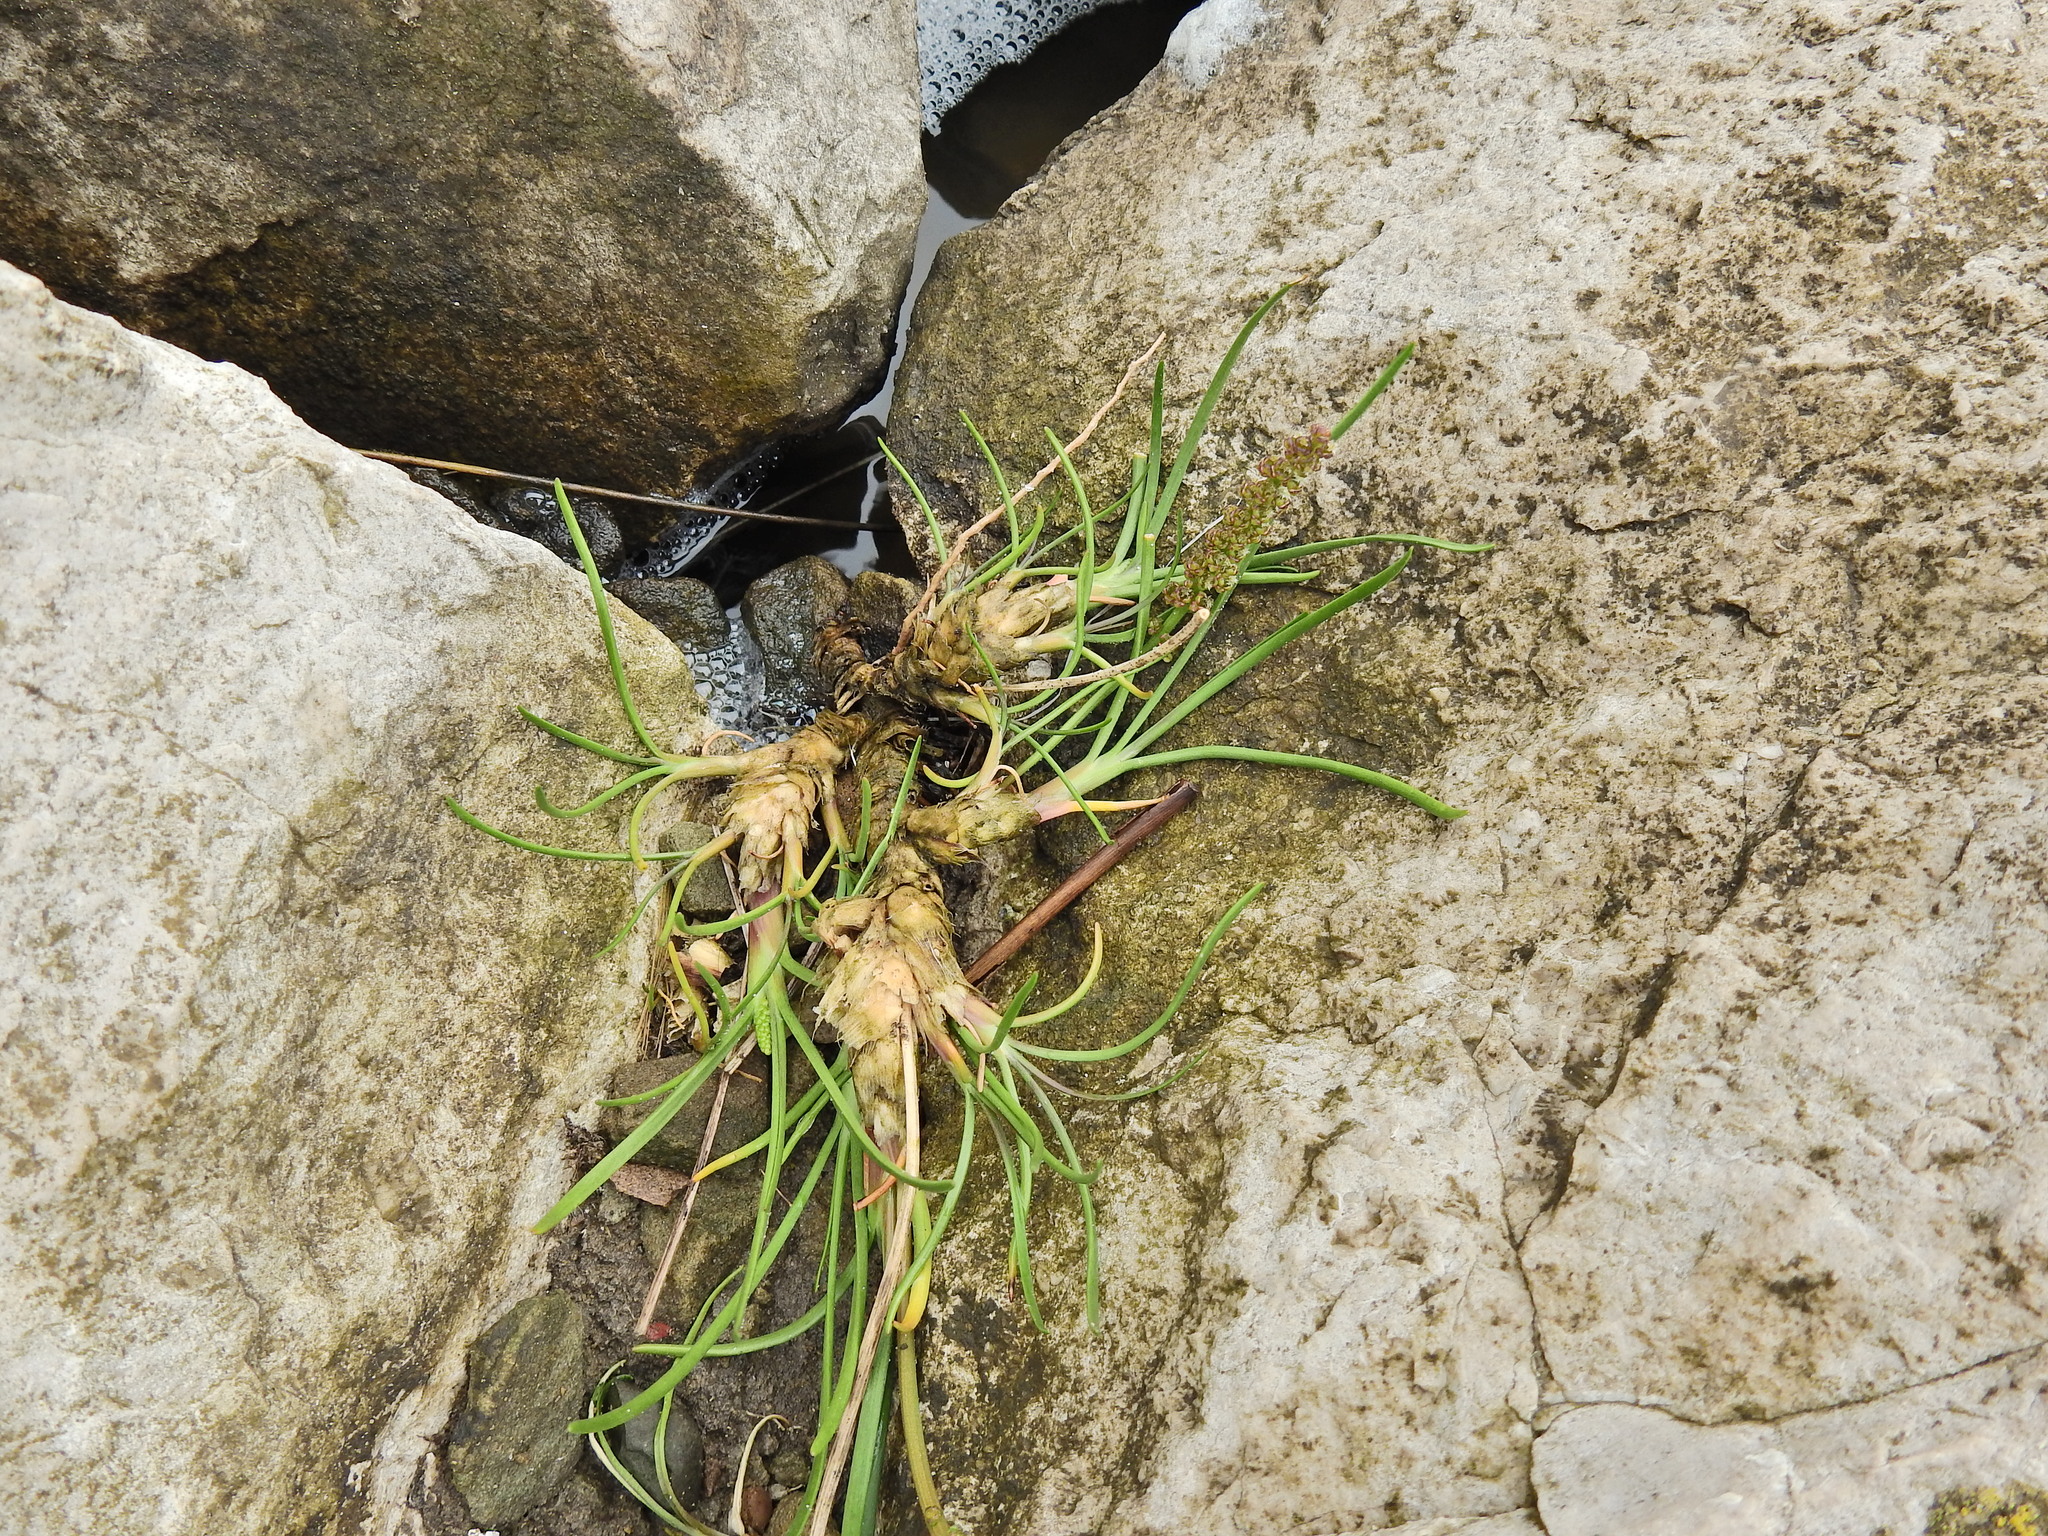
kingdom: Plantae
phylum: Tracheophyta
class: Magnoliopsida
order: Lamiales
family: Plantaginaceae
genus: Plantago
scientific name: Plantago maritima
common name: Sea plantain
